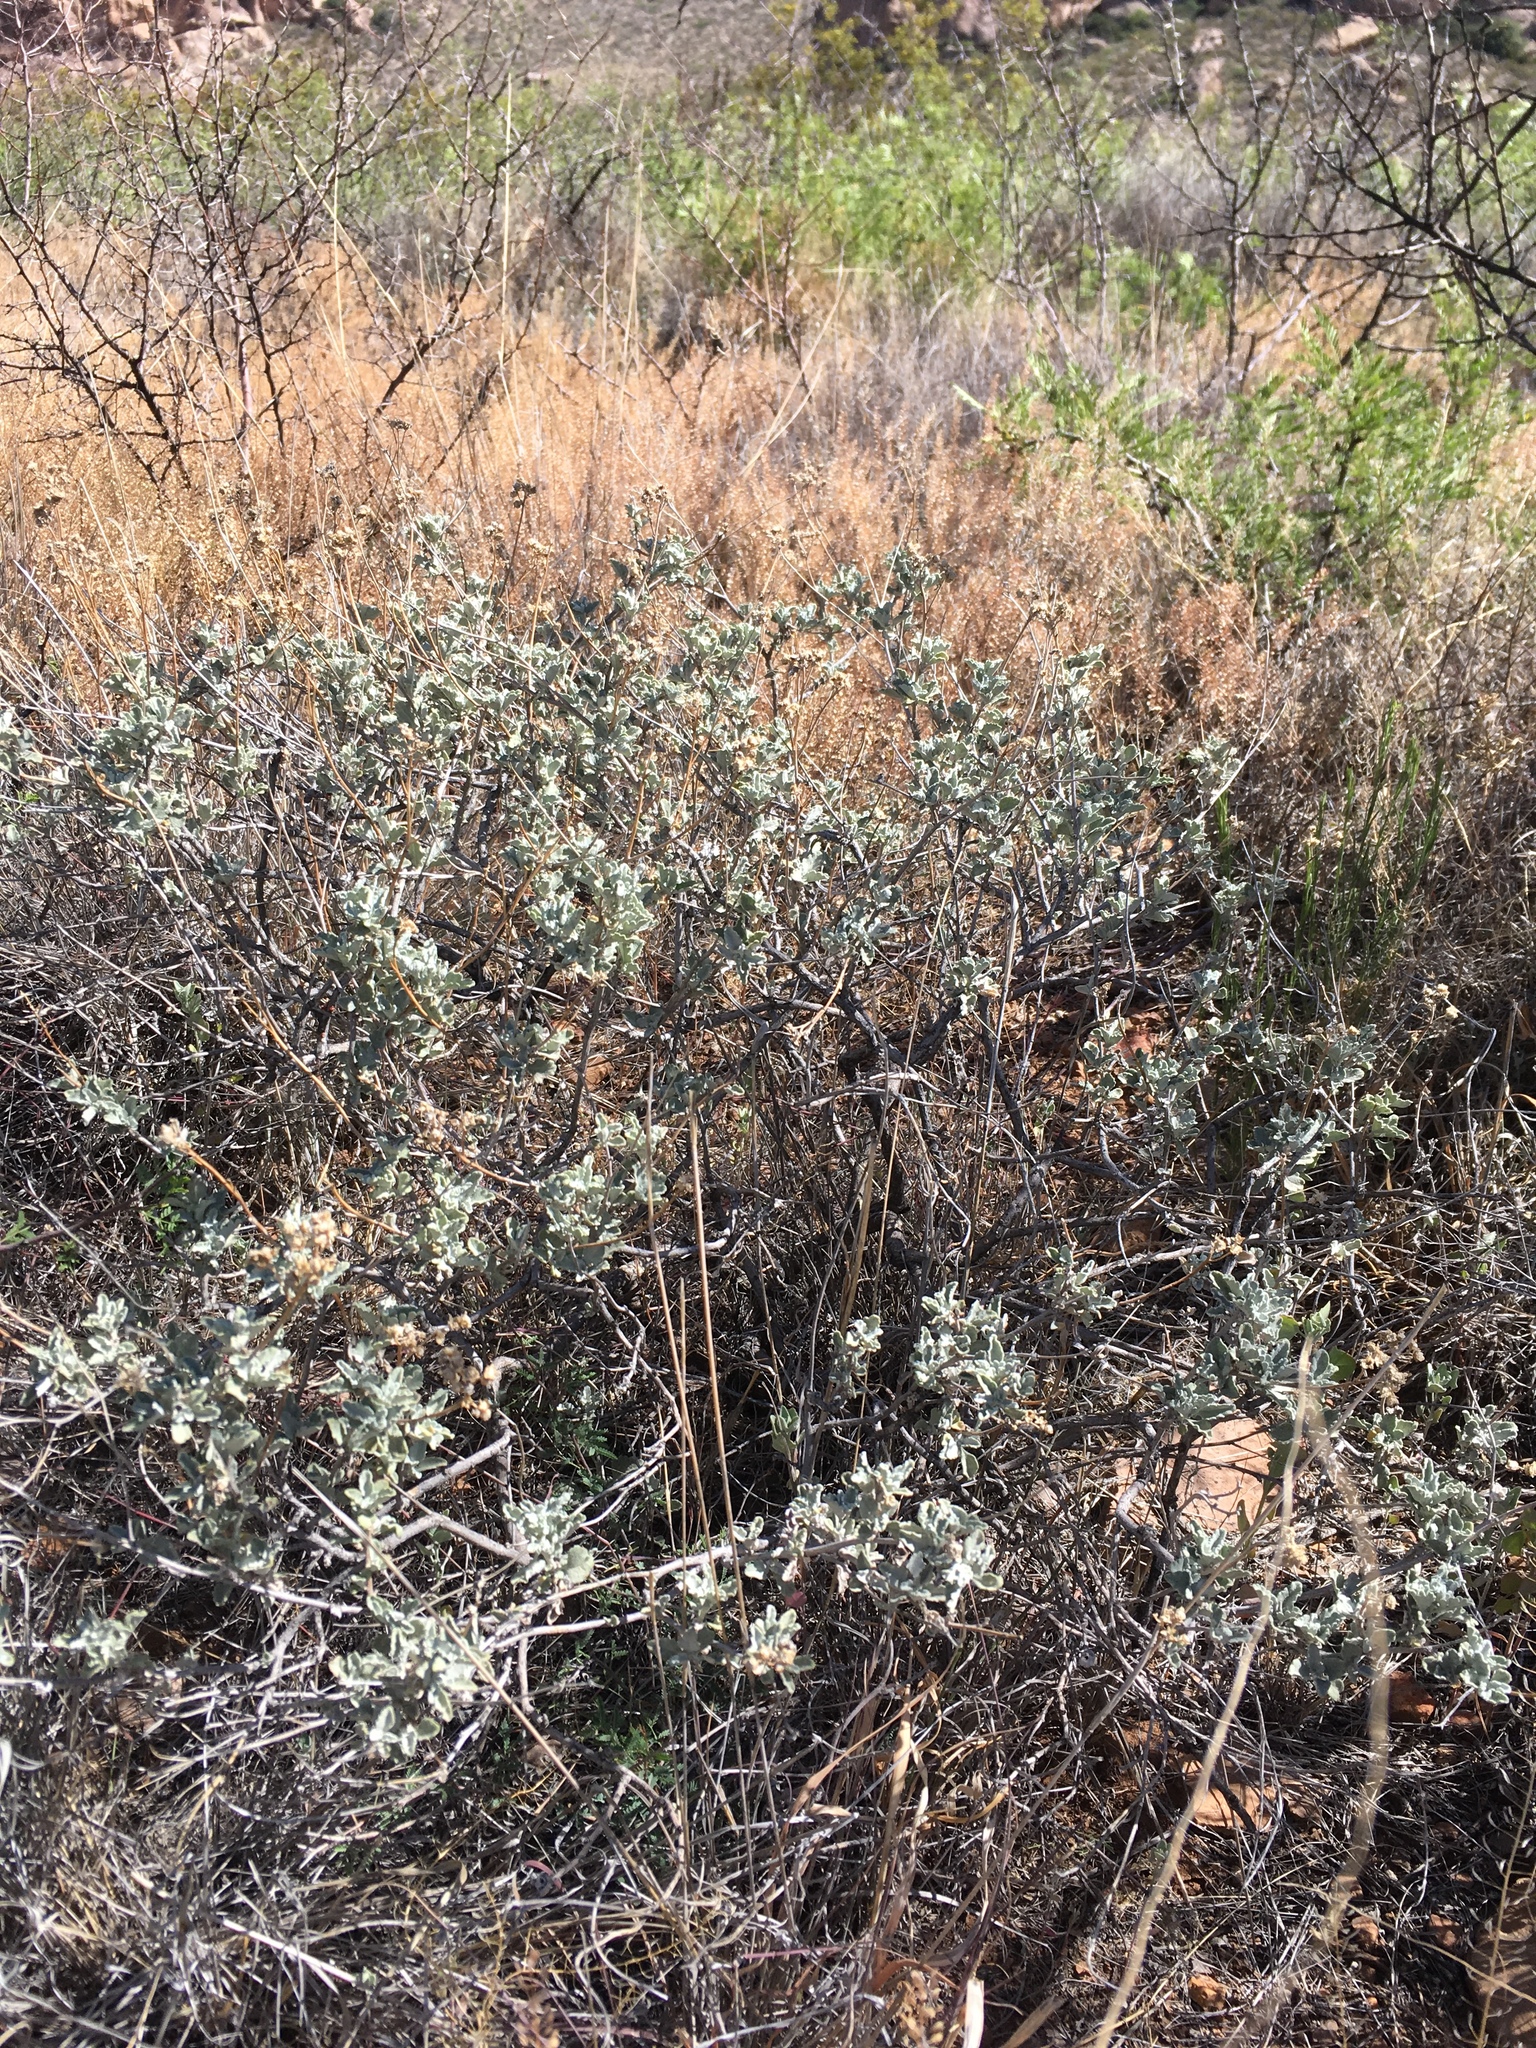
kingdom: Plantae
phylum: Tracheophyta
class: Magnoliopsida
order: Asterales
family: Asteraceae
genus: Parthenium
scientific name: Parthenium incanum
